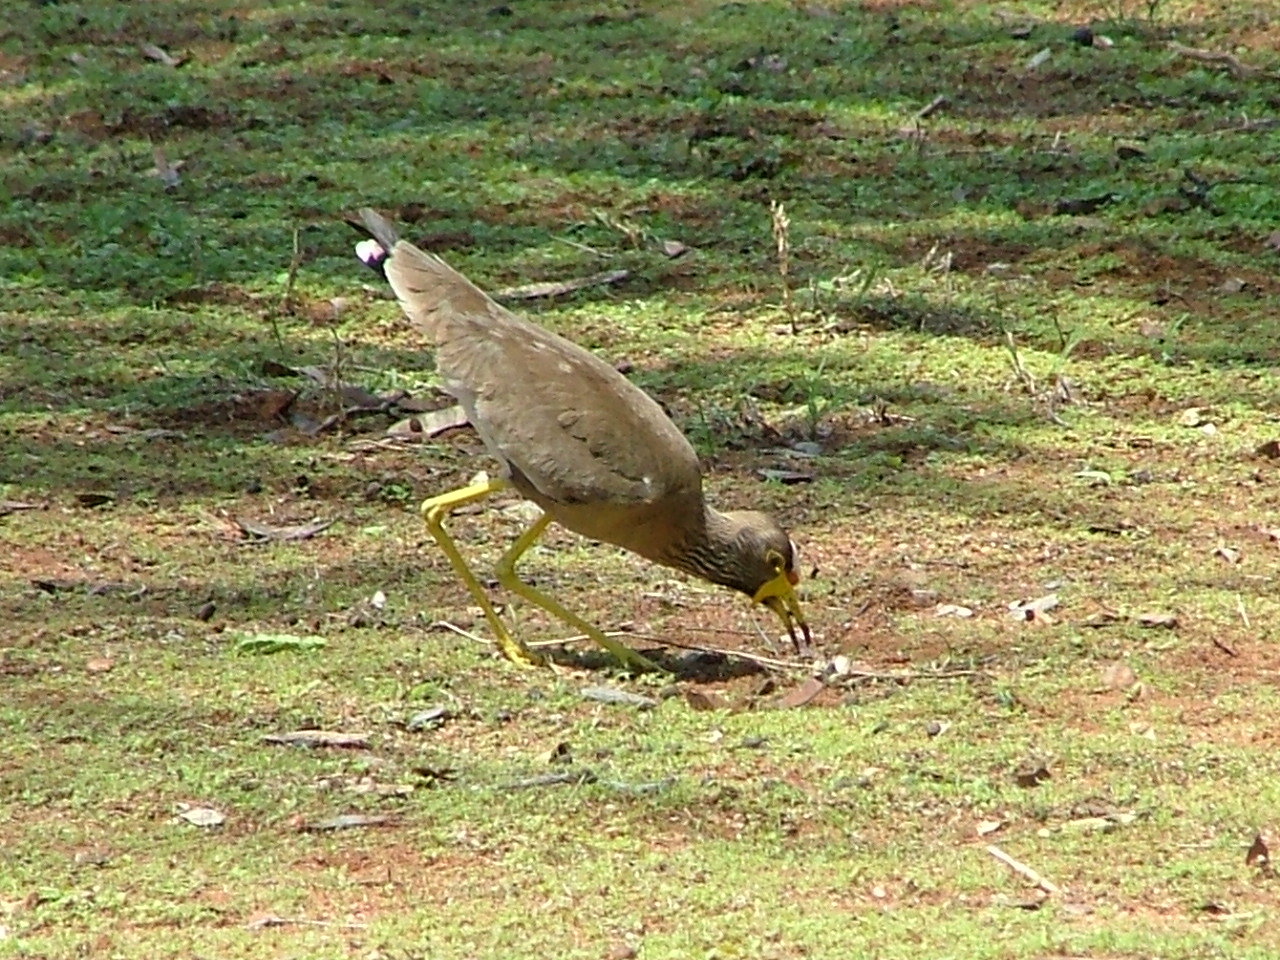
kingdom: Animalia
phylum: Chordata
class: Aves
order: Charadriiformes
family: Charadriidae
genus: Vanellus
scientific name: Vanellus senegallus
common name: African wattled lapwing
